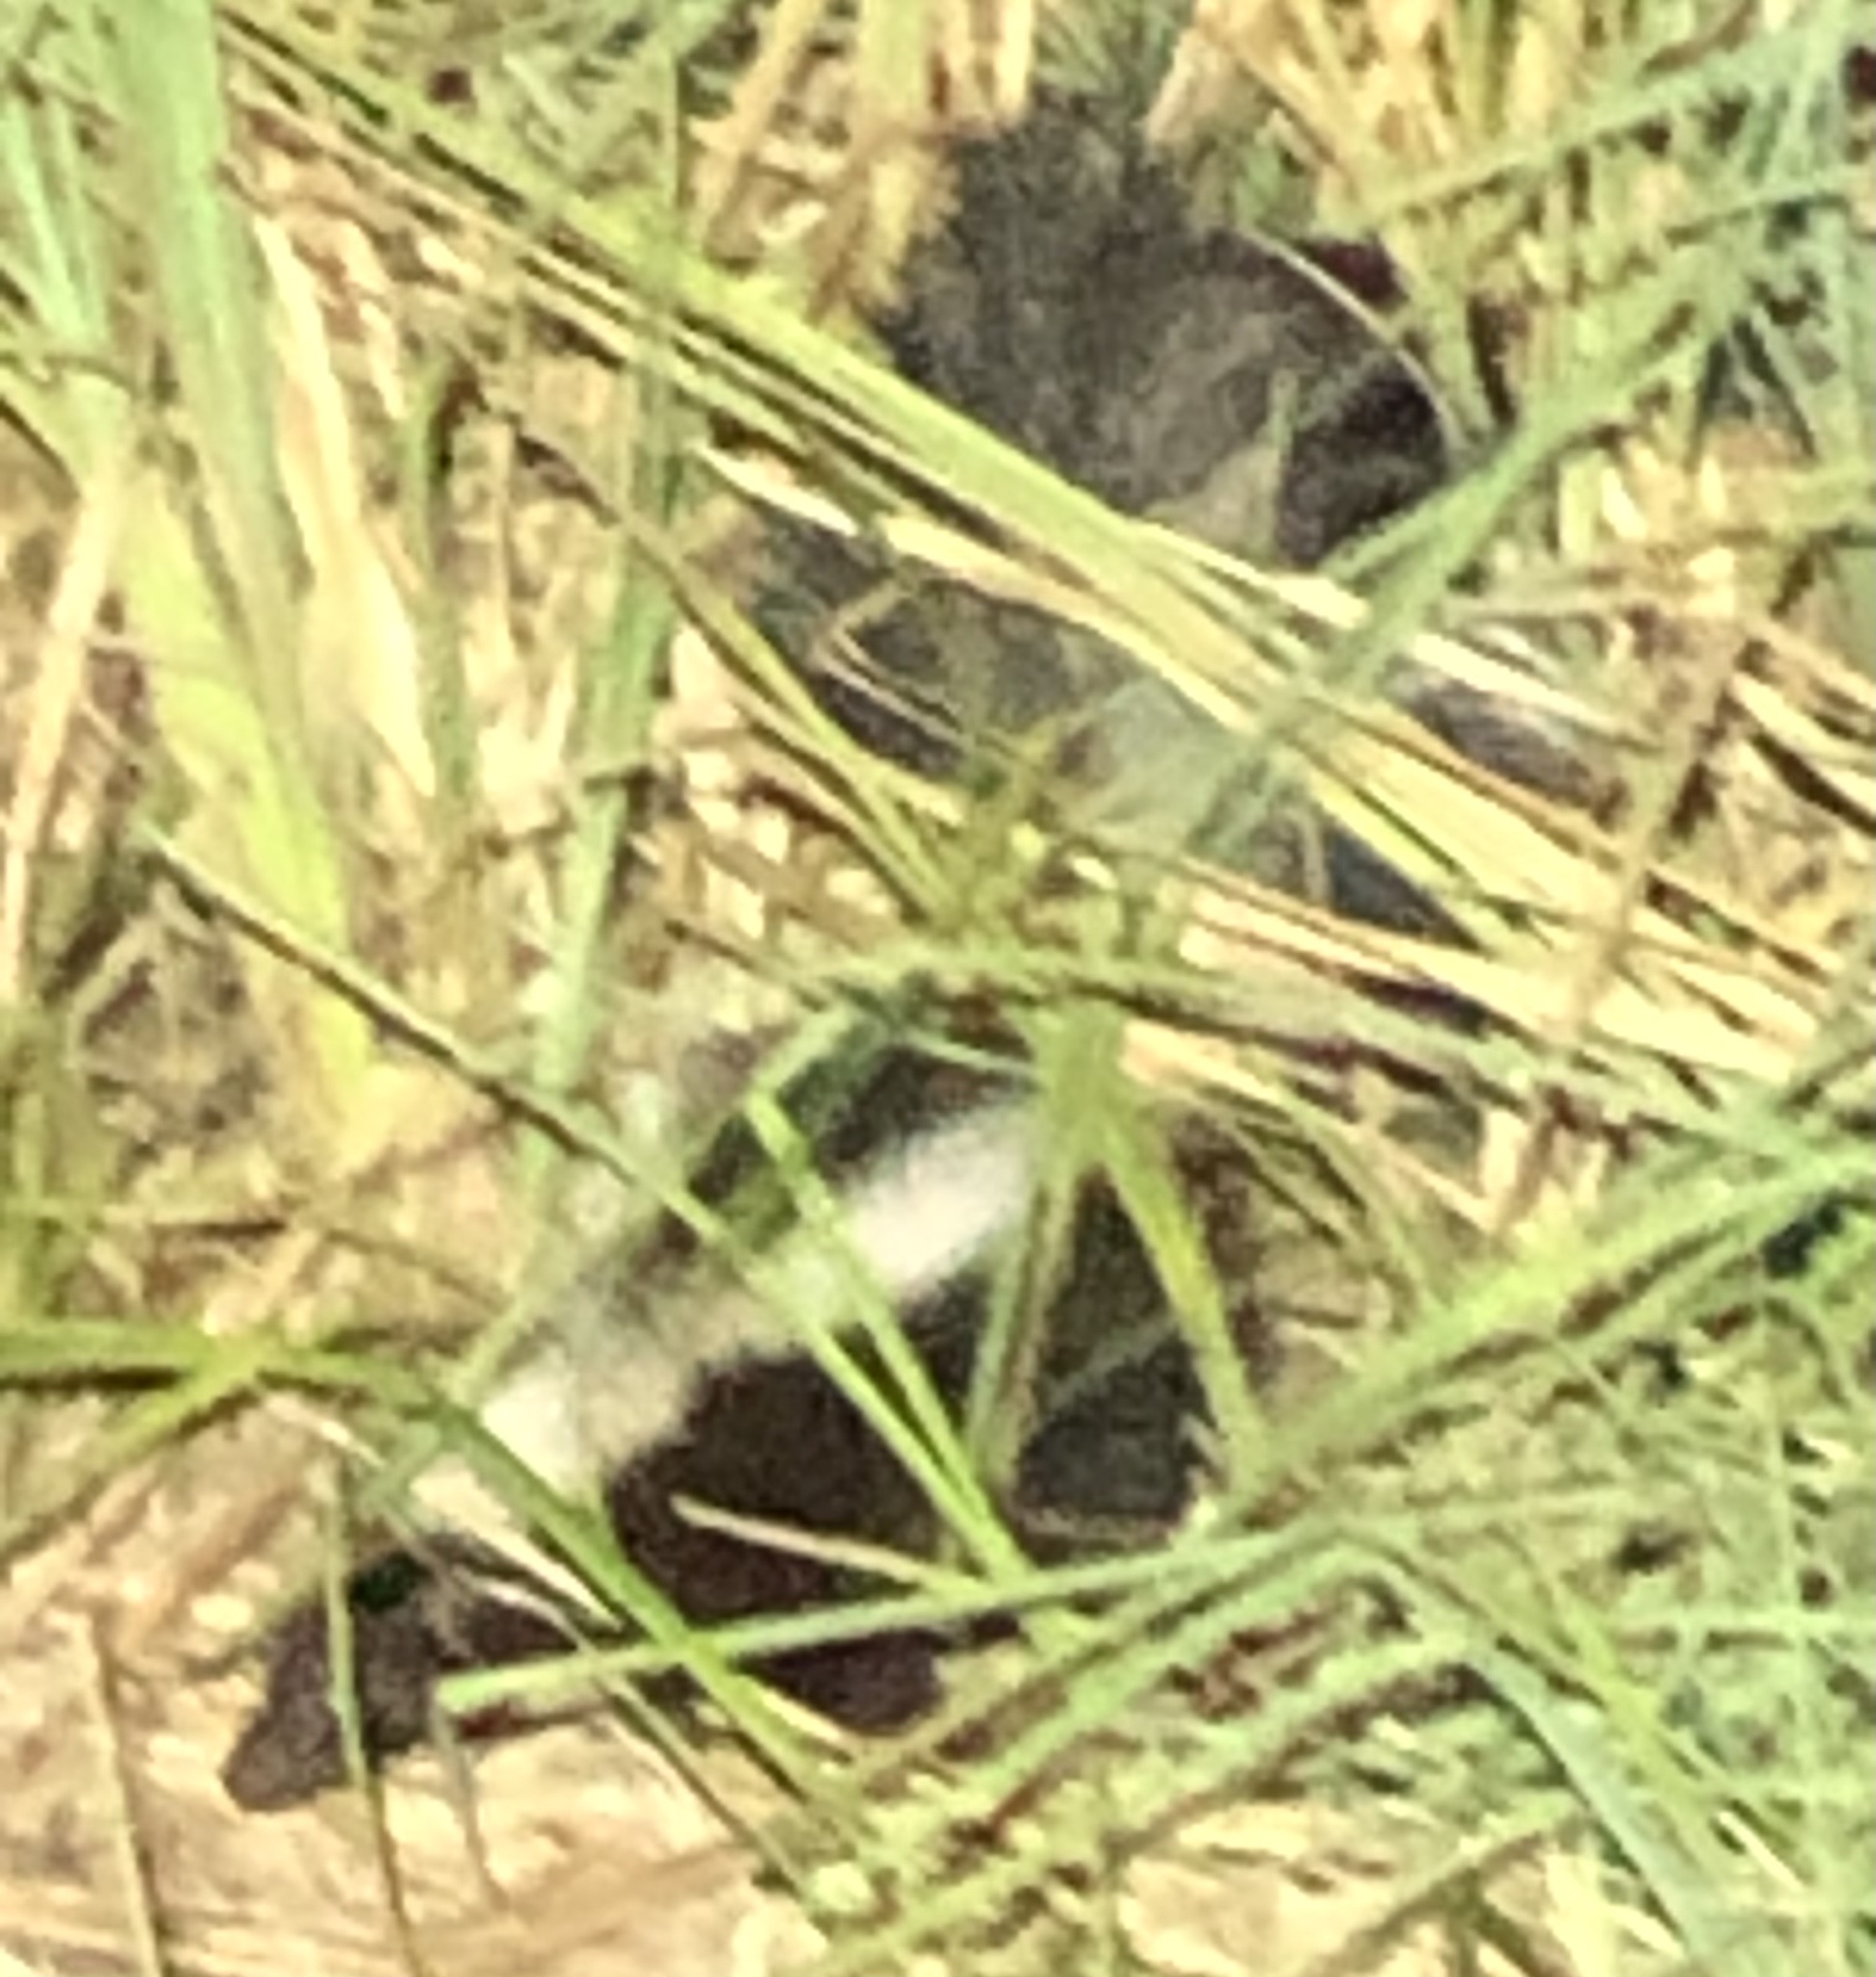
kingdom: Animalia
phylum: Chordata
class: Mammalia
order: Carnivora
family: Mephitidae
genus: Mephitis
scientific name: Mephitis mephitis
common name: Striped skunk
